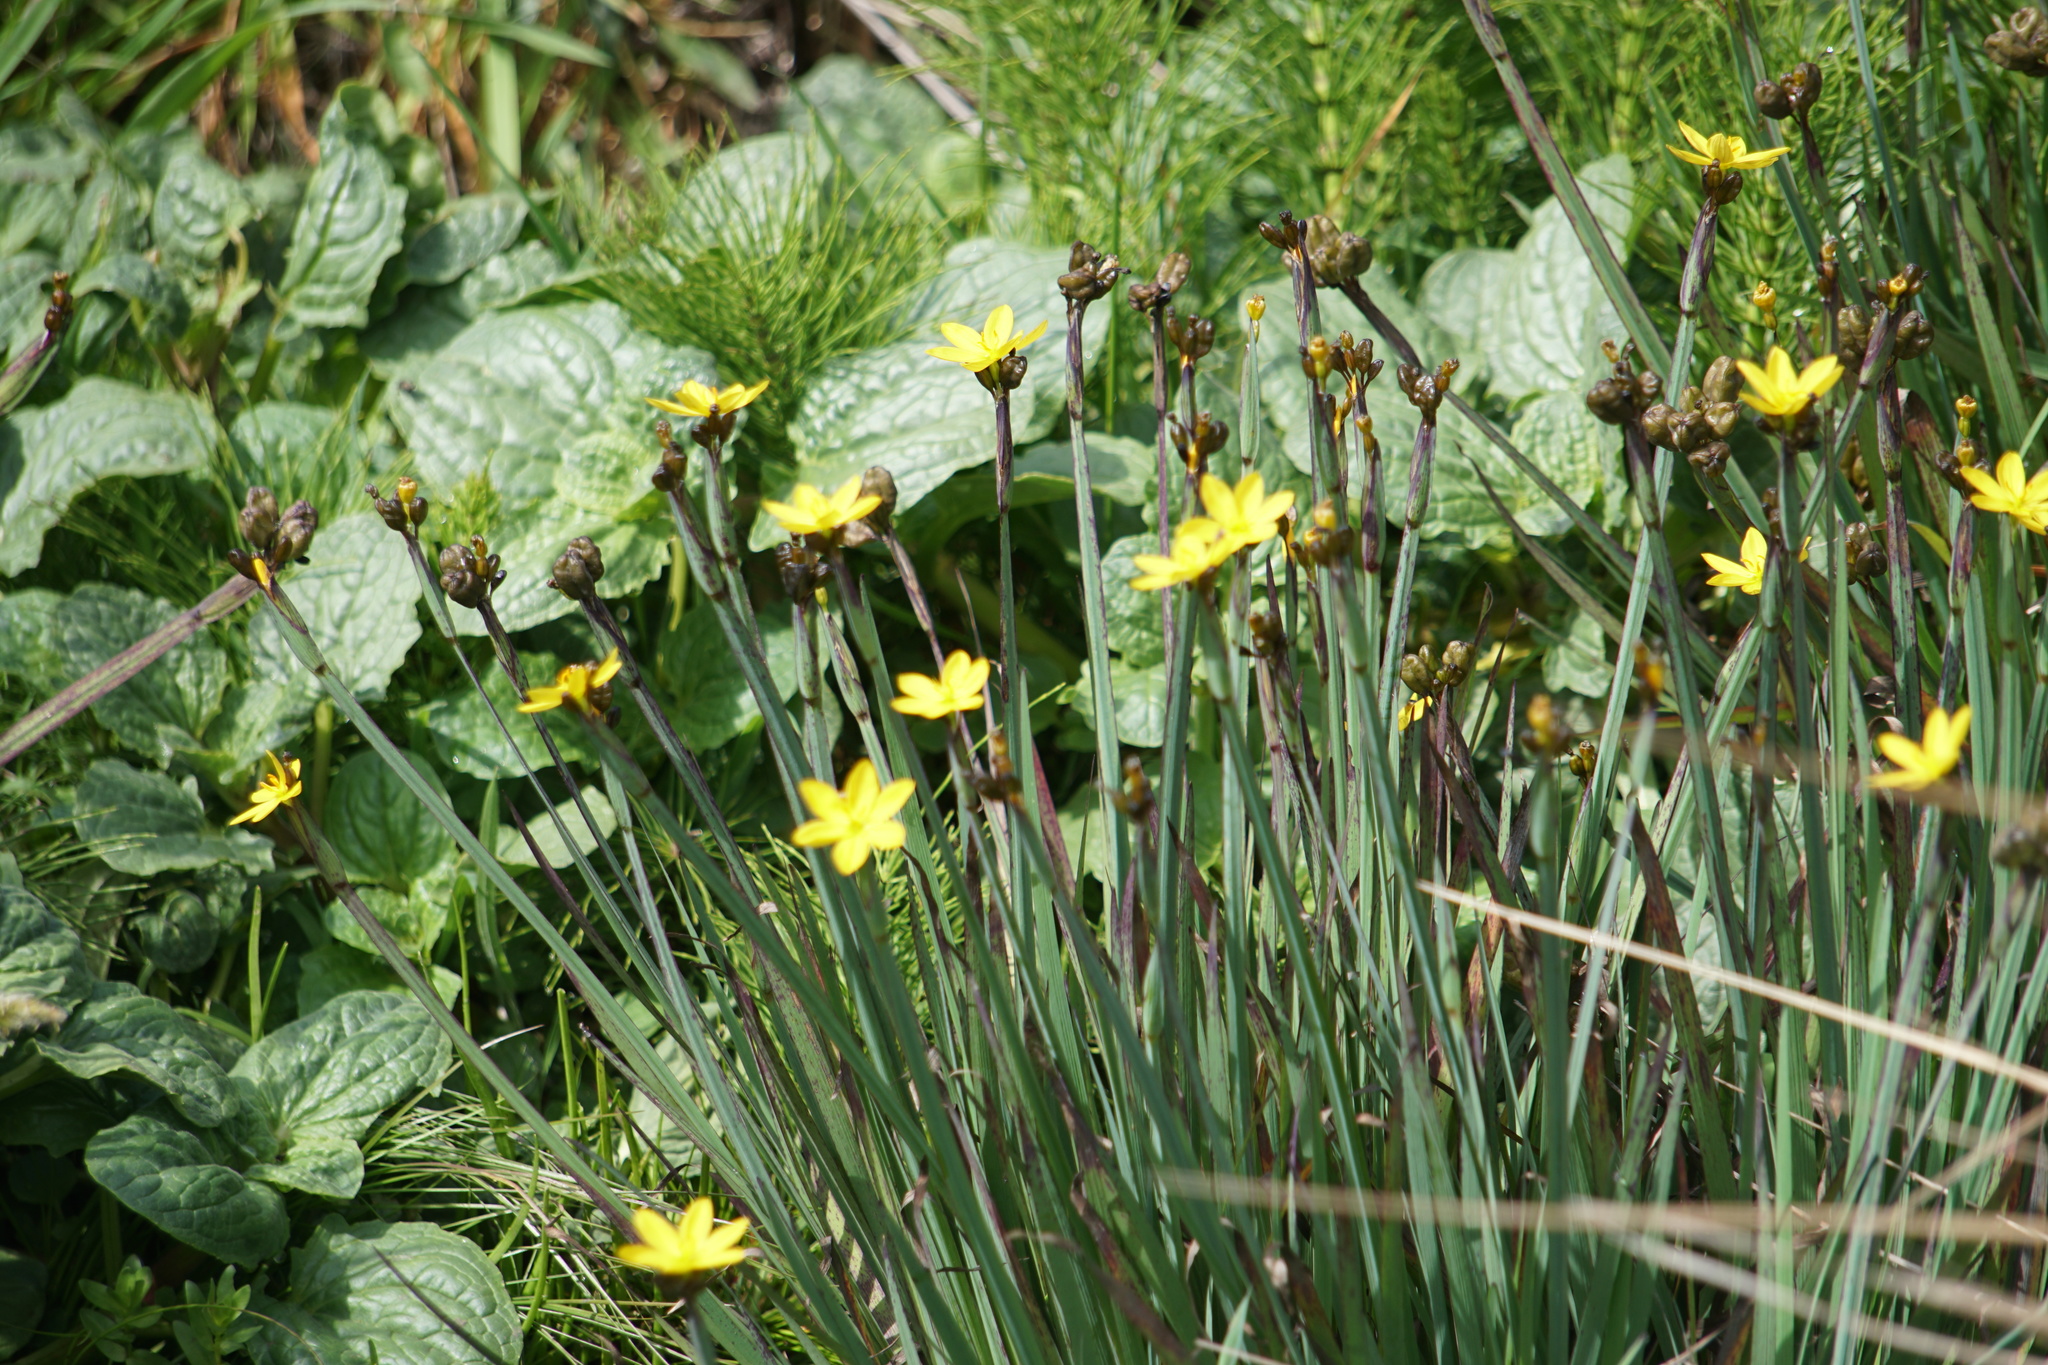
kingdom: Plantae
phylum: Tracheophyta
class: Liliopsida
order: Asparagales
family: Iridaceae
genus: Sisyrinchium
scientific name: Sisyrinchium californicum
